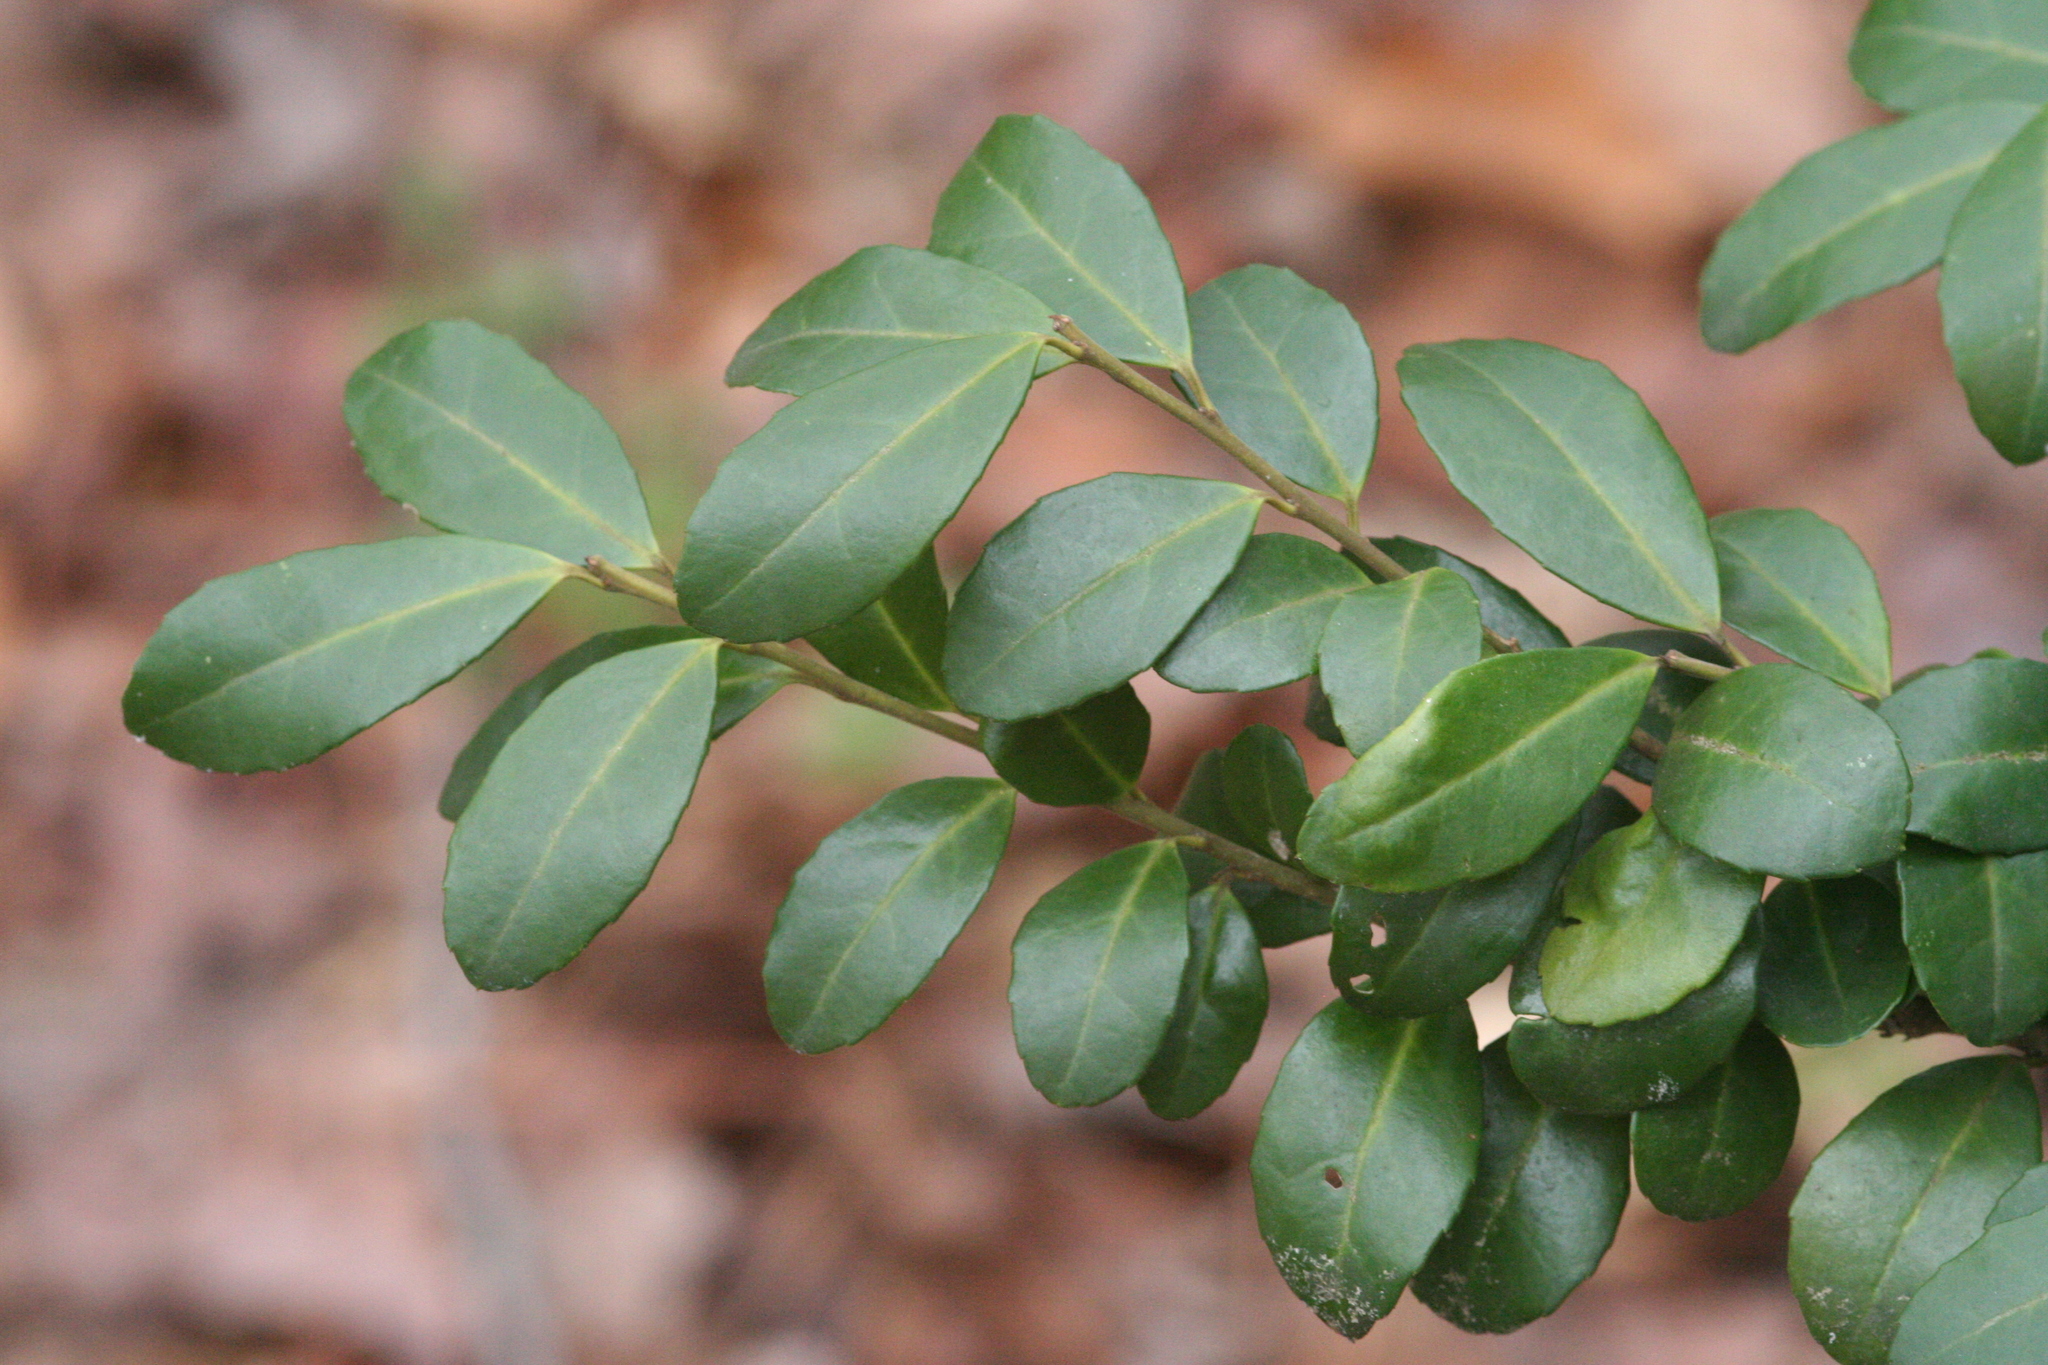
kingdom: Plantae
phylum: Tracheophyta
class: Magnoliopsida
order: Aquifoliales
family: Aquifoliaceae
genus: Ilex
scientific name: Ilex crenata
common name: Japanese holly
